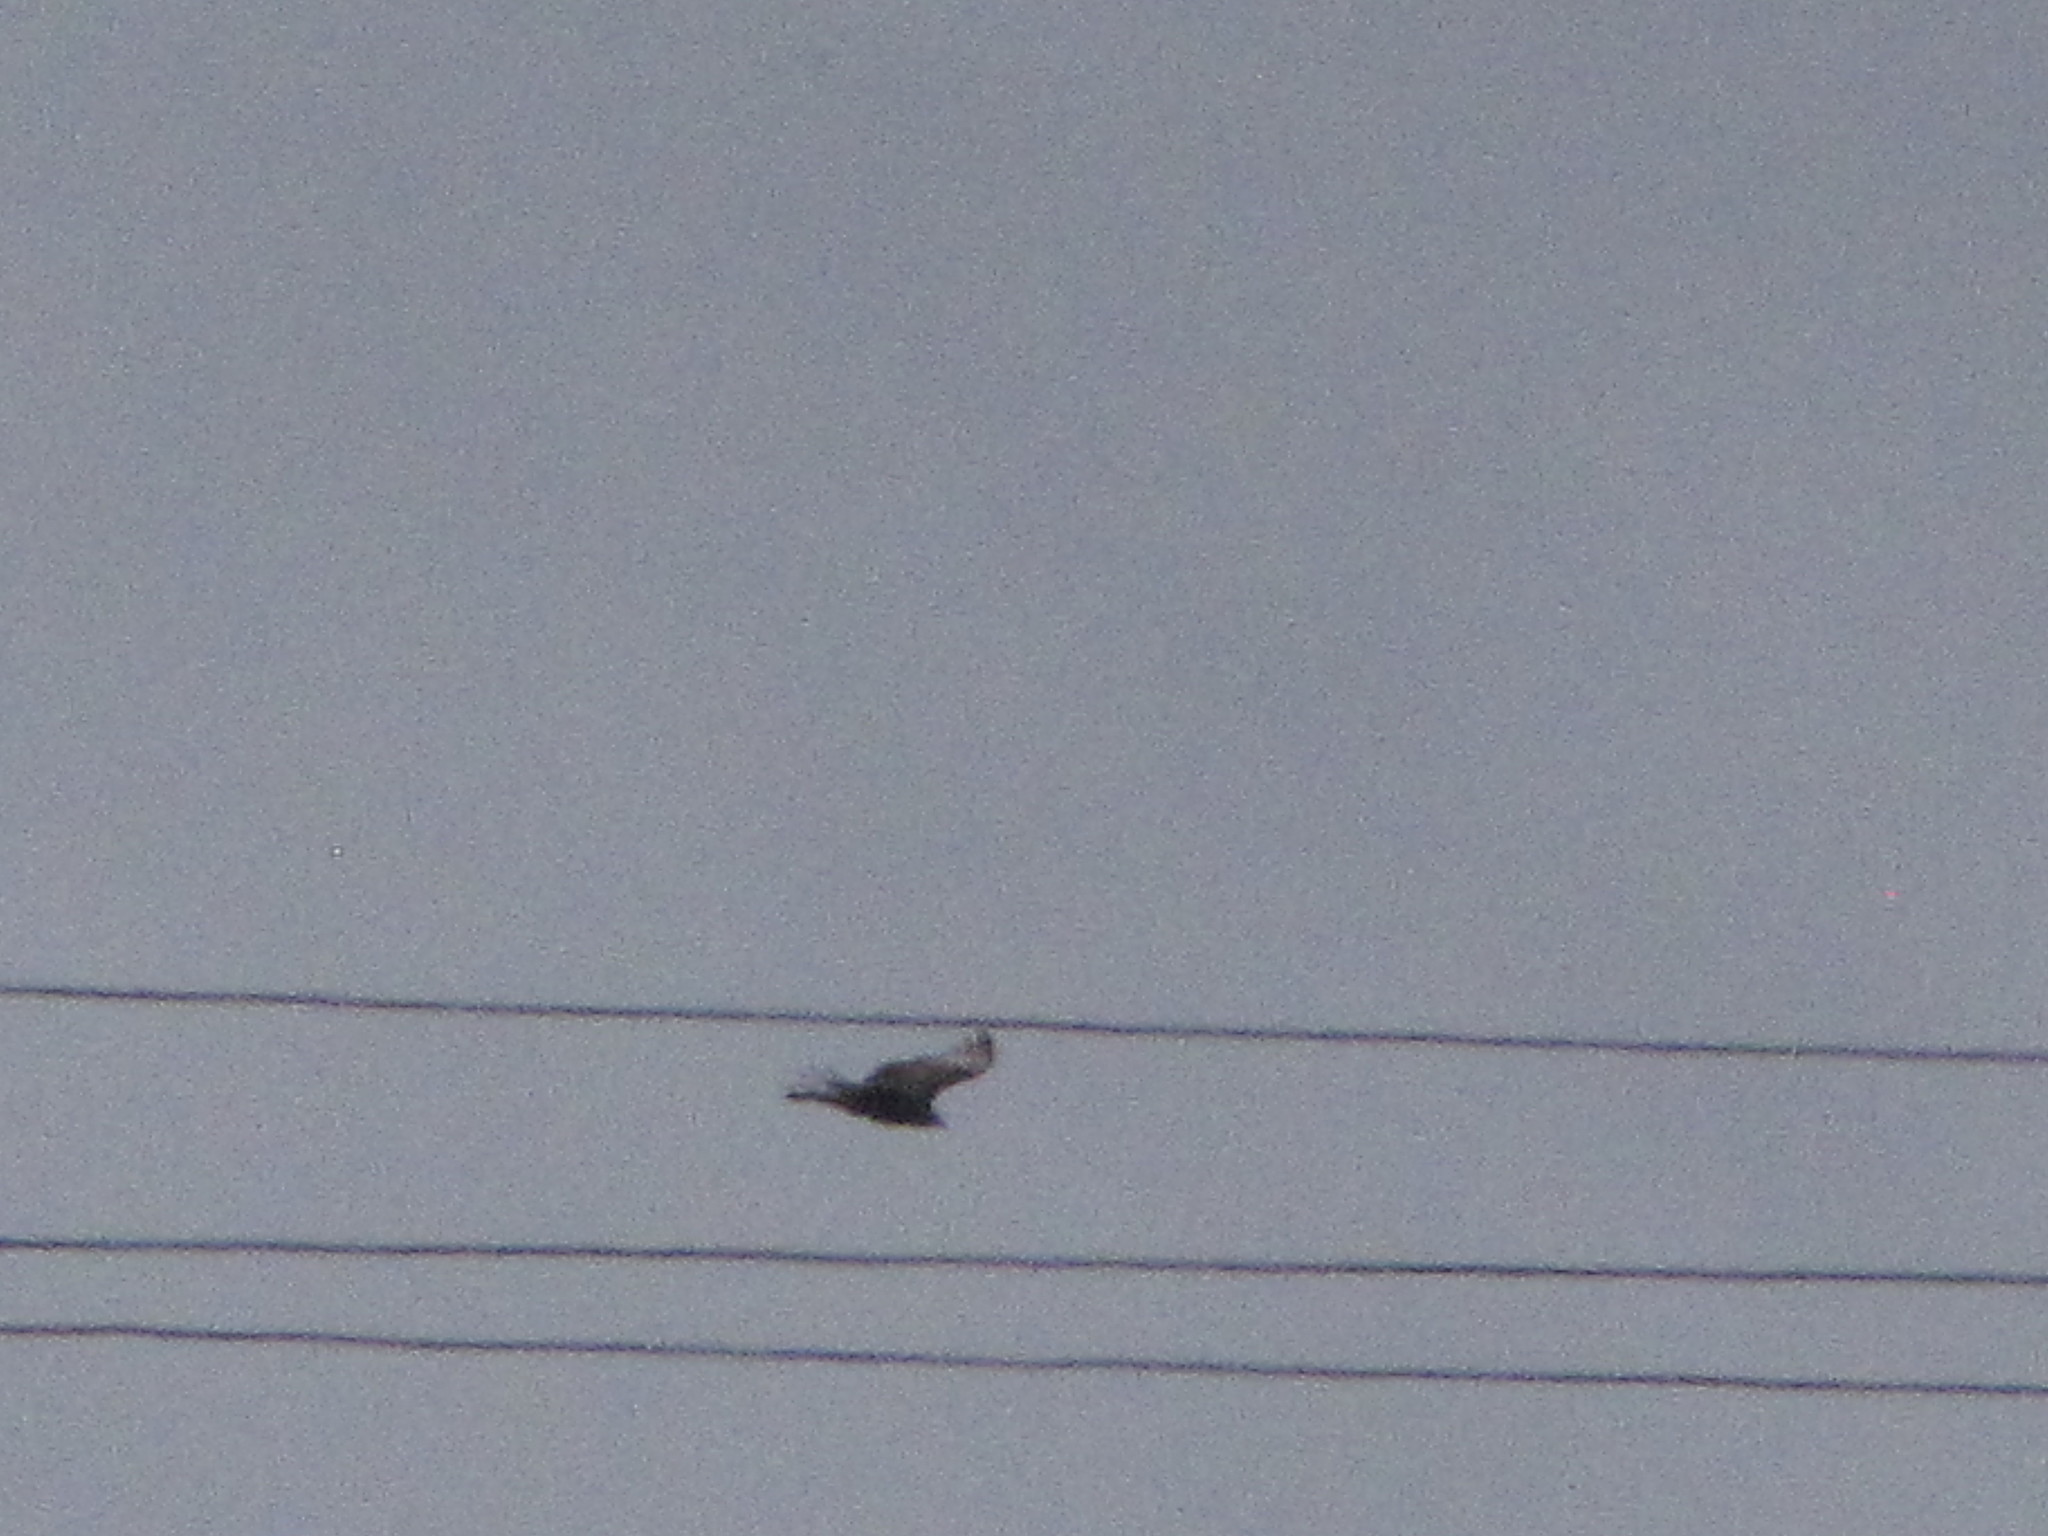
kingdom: Animalia
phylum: Chordata
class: Aves
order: Accipitriformes
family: Cathartidae
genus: Cathartes
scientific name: Cathartes aura
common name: Turkey vulture
